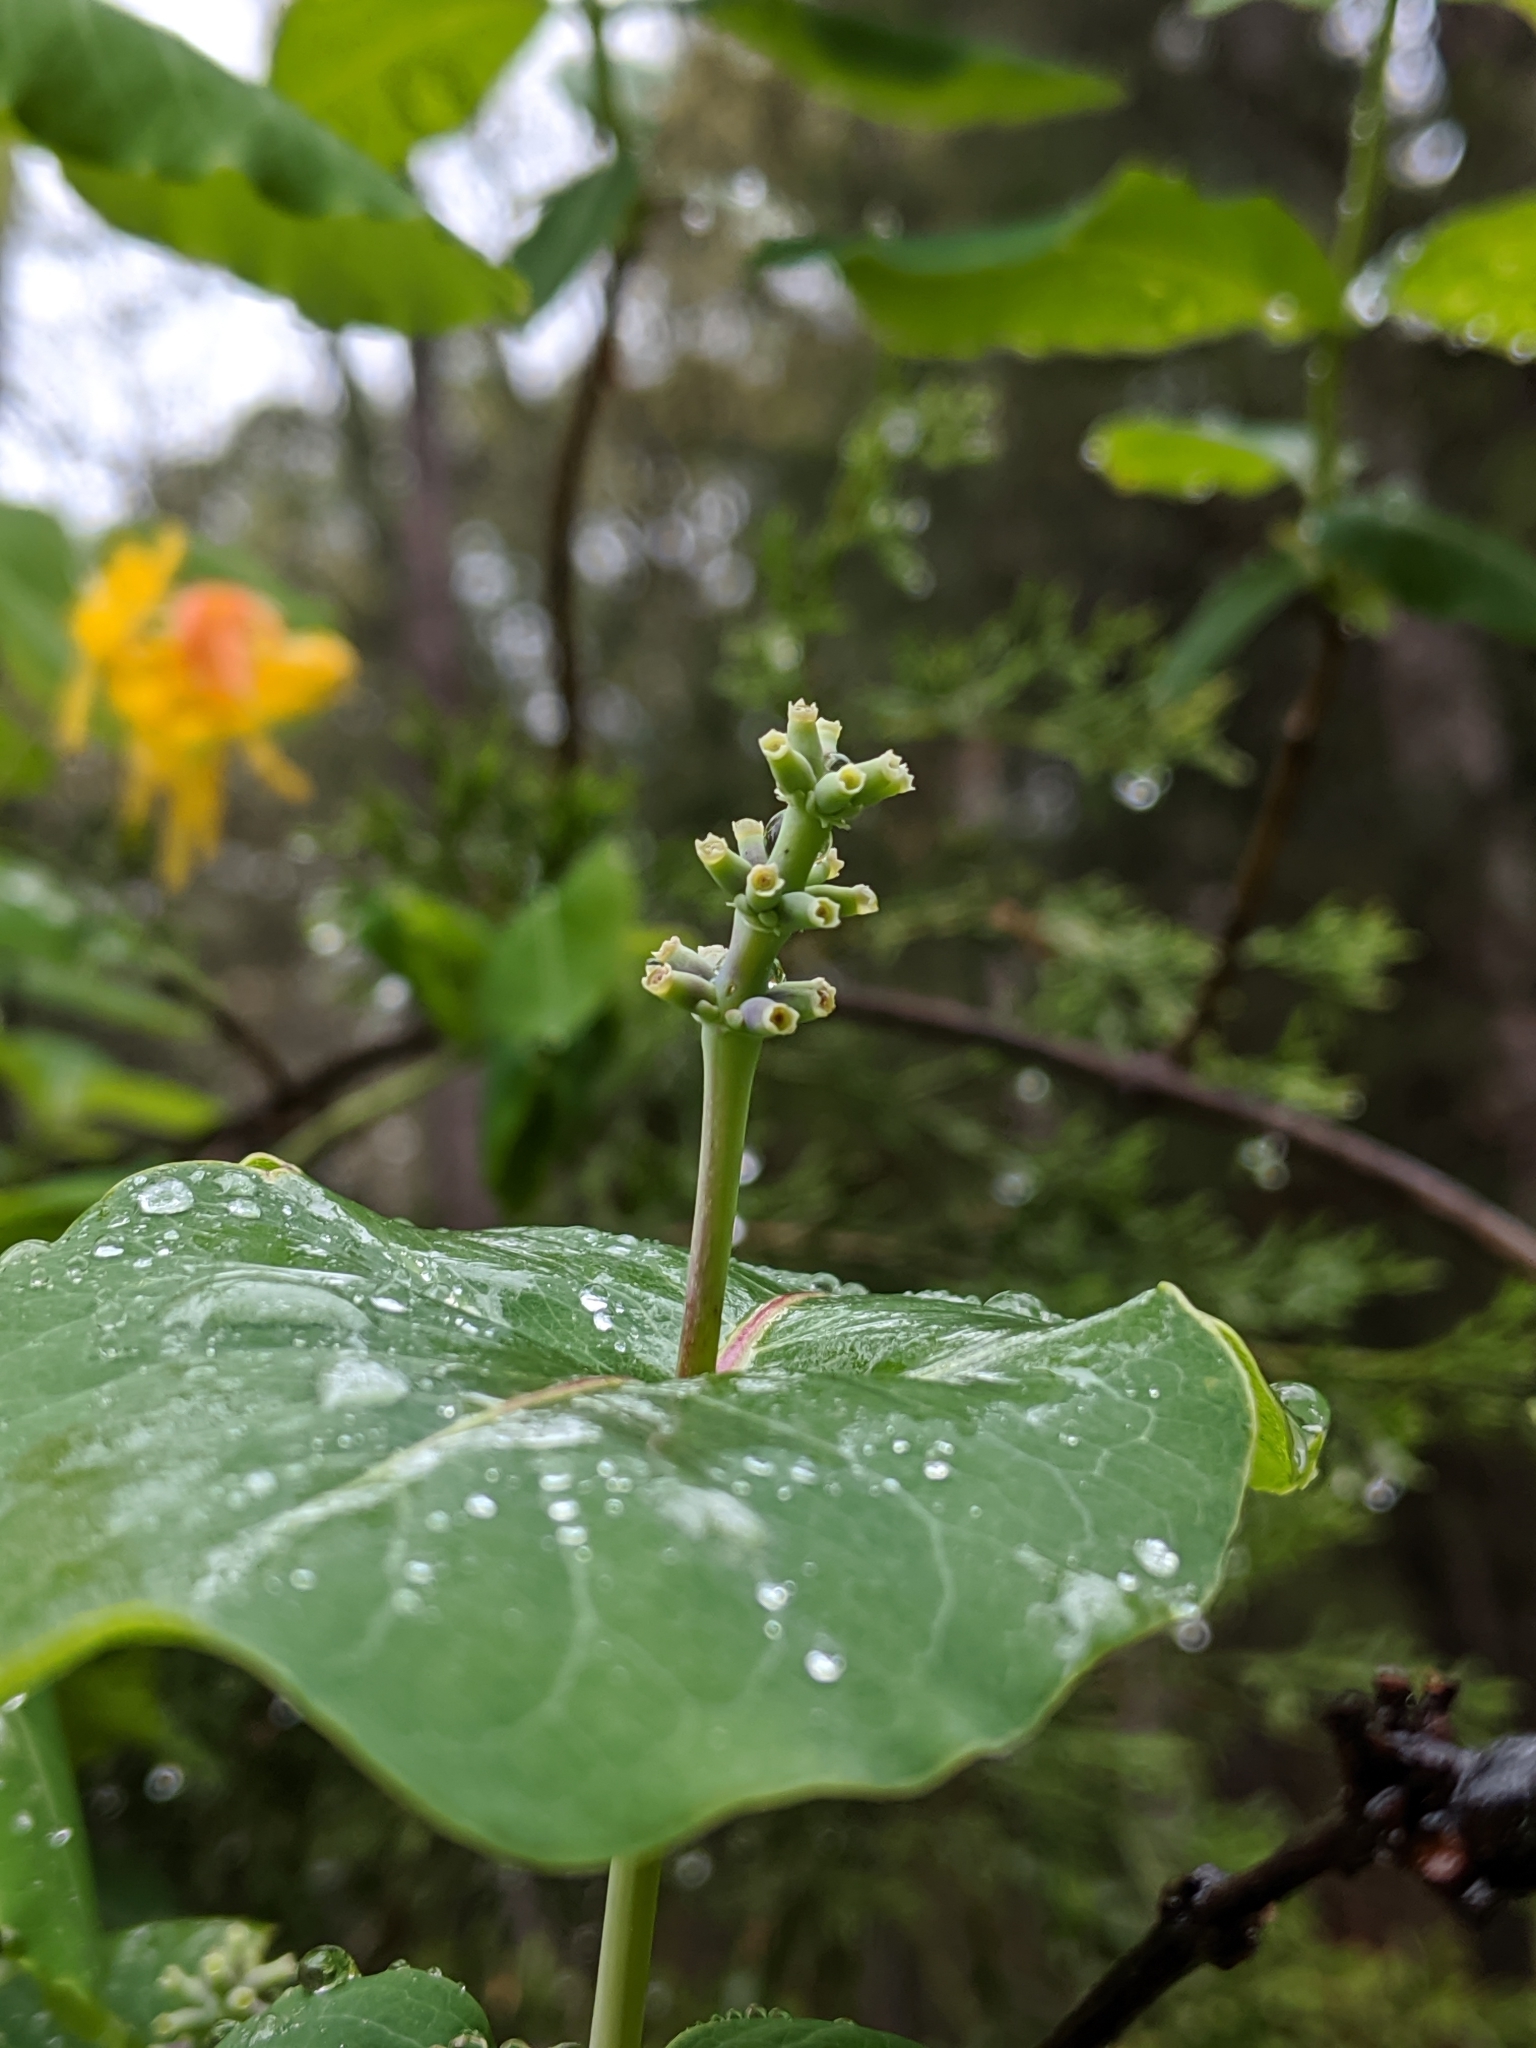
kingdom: Plantae
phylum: Tracheophyta
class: Magnoliopsida
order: Dipsacales
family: Caprifoliaceae
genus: Lonicera
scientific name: Lonicera flava
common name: Yellow honeysuckle
